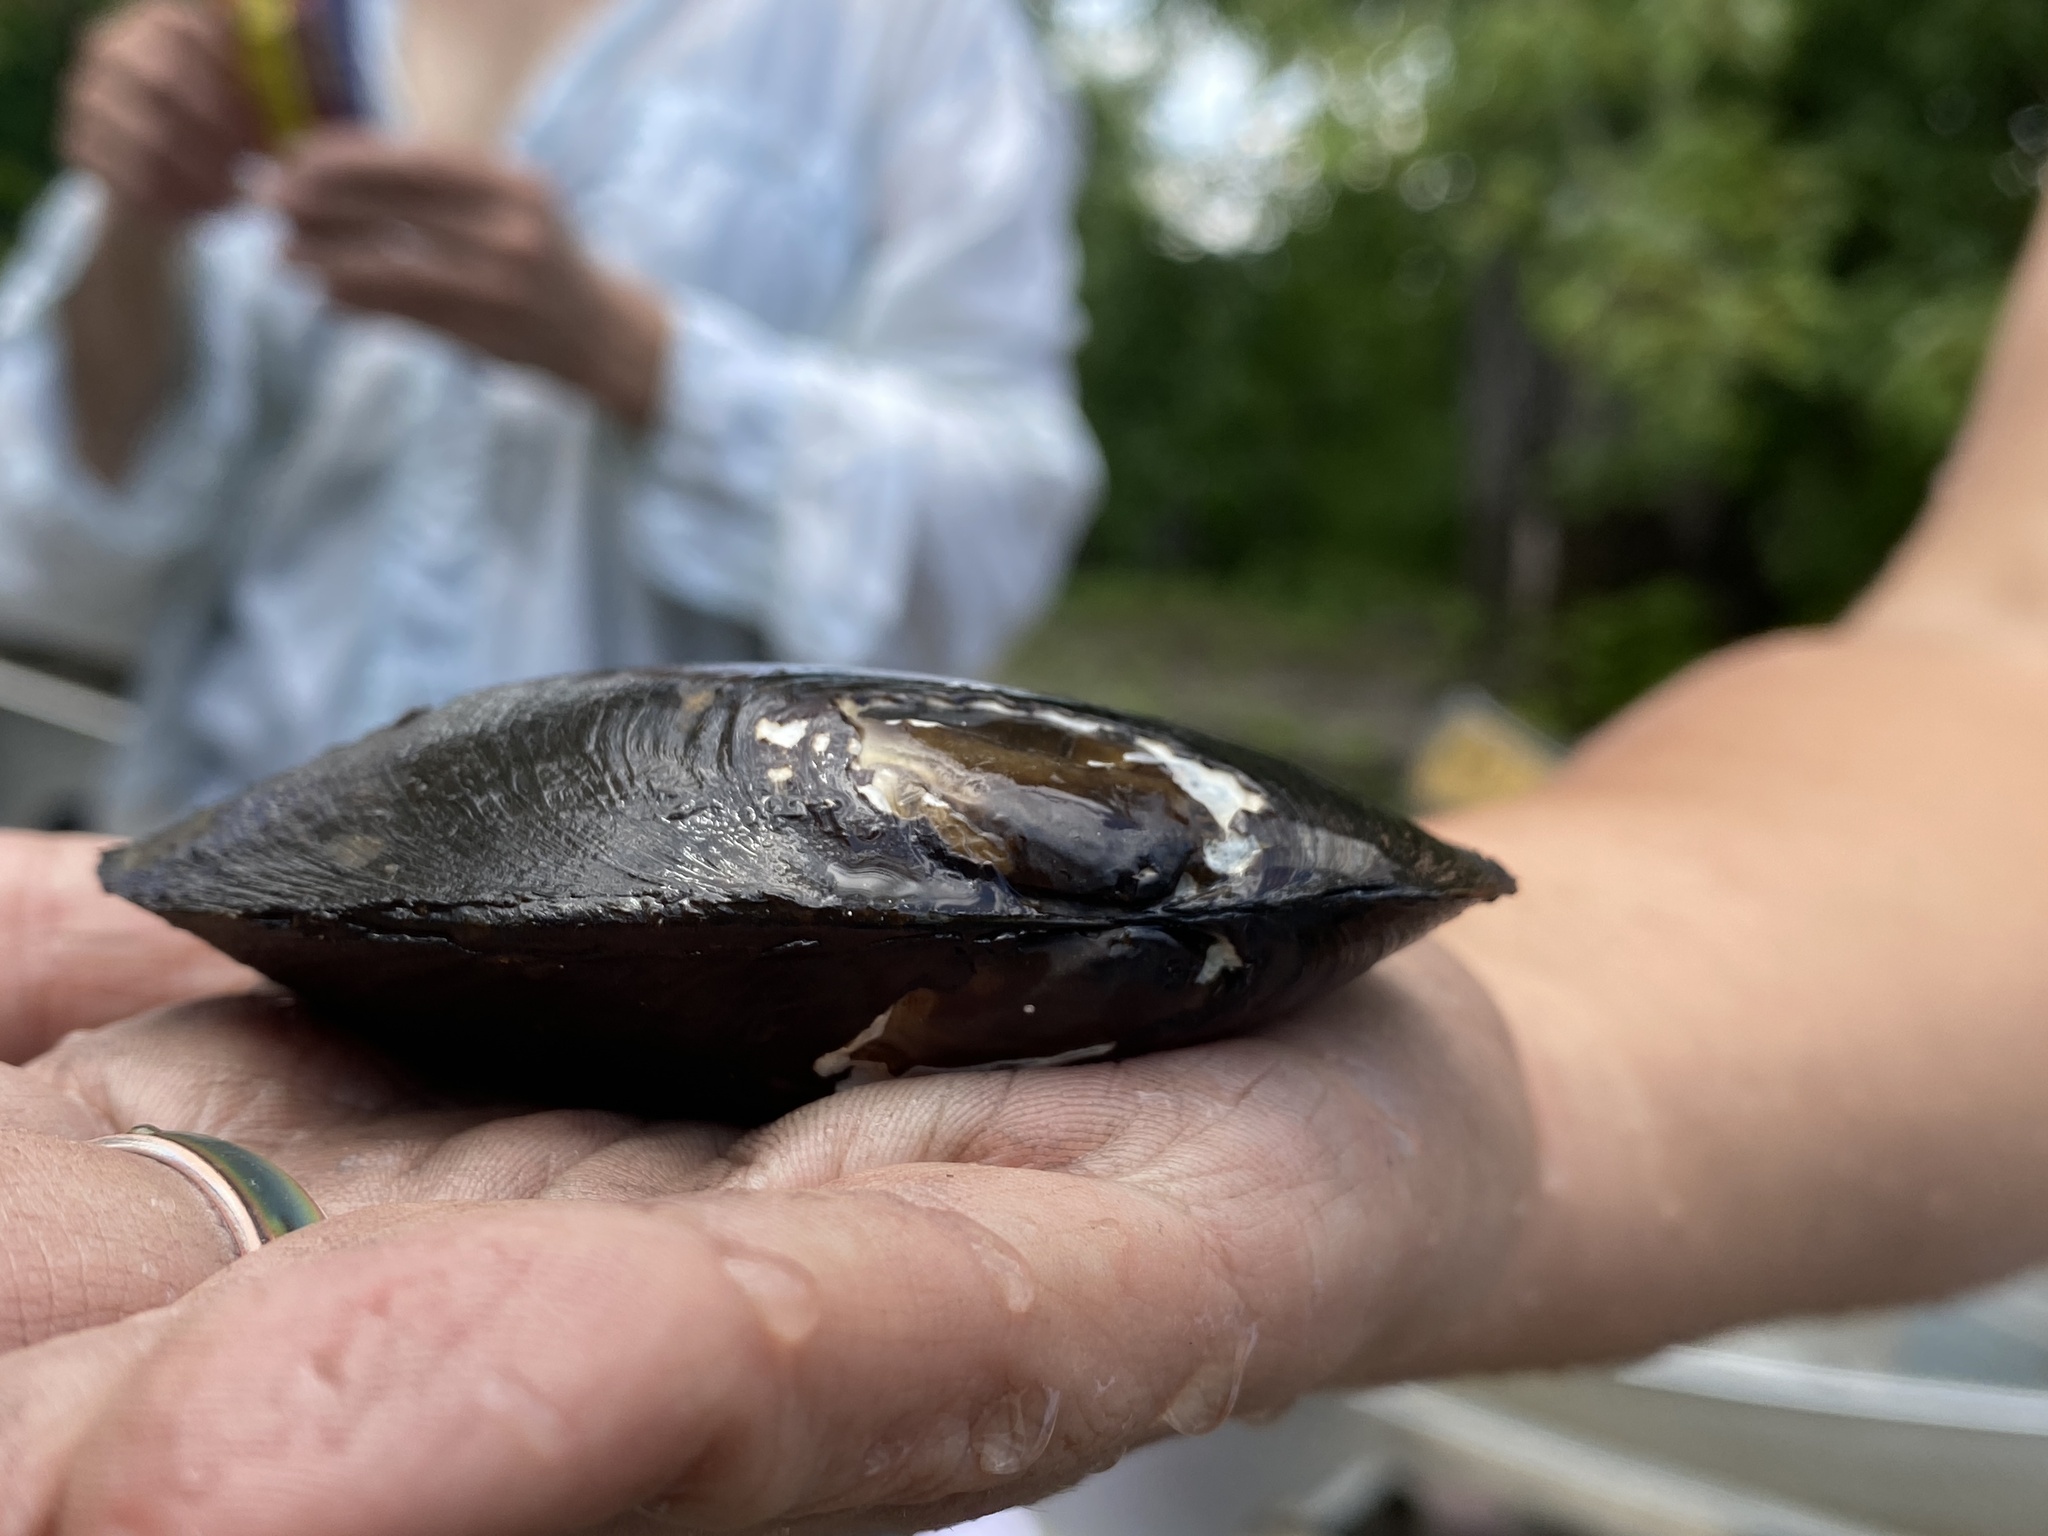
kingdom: Animalia
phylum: Mollusca
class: Bivalvia
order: Unionida
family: Unionidae
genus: Elliptio
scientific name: Elliptio complanata
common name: Eastern elliptio
